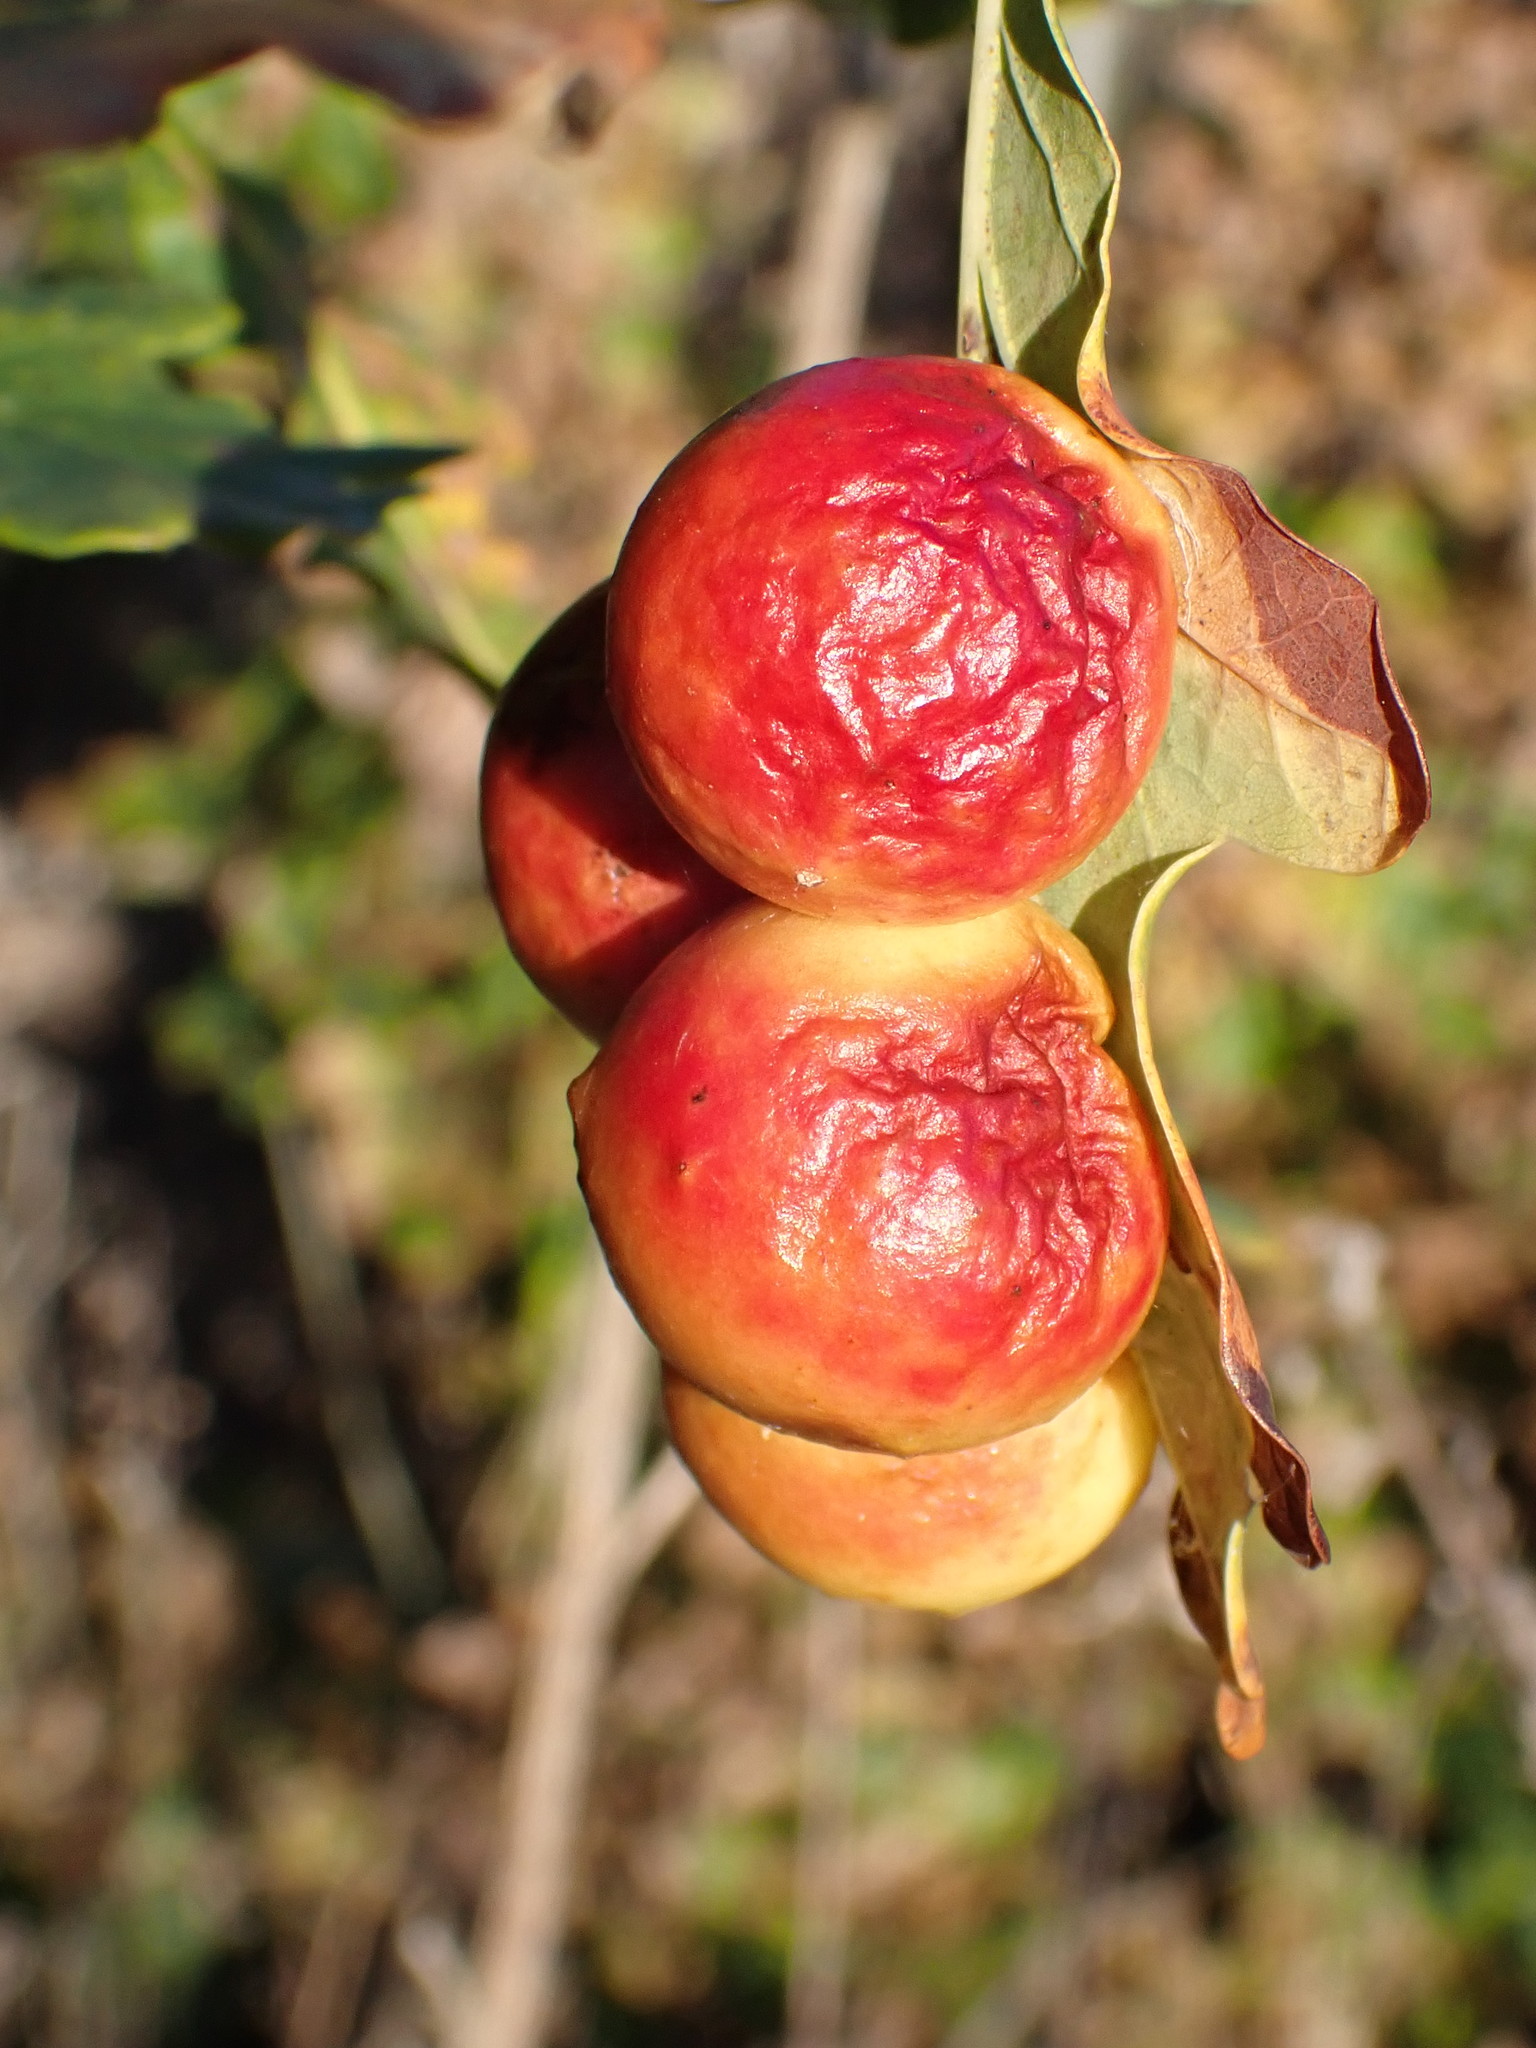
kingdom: Animalia
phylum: Arthropoda
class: Insecta
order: Hymenoptera
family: Cynipidae
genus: Cynips
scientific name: Cynips quercusfolii
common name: Cherry gall
